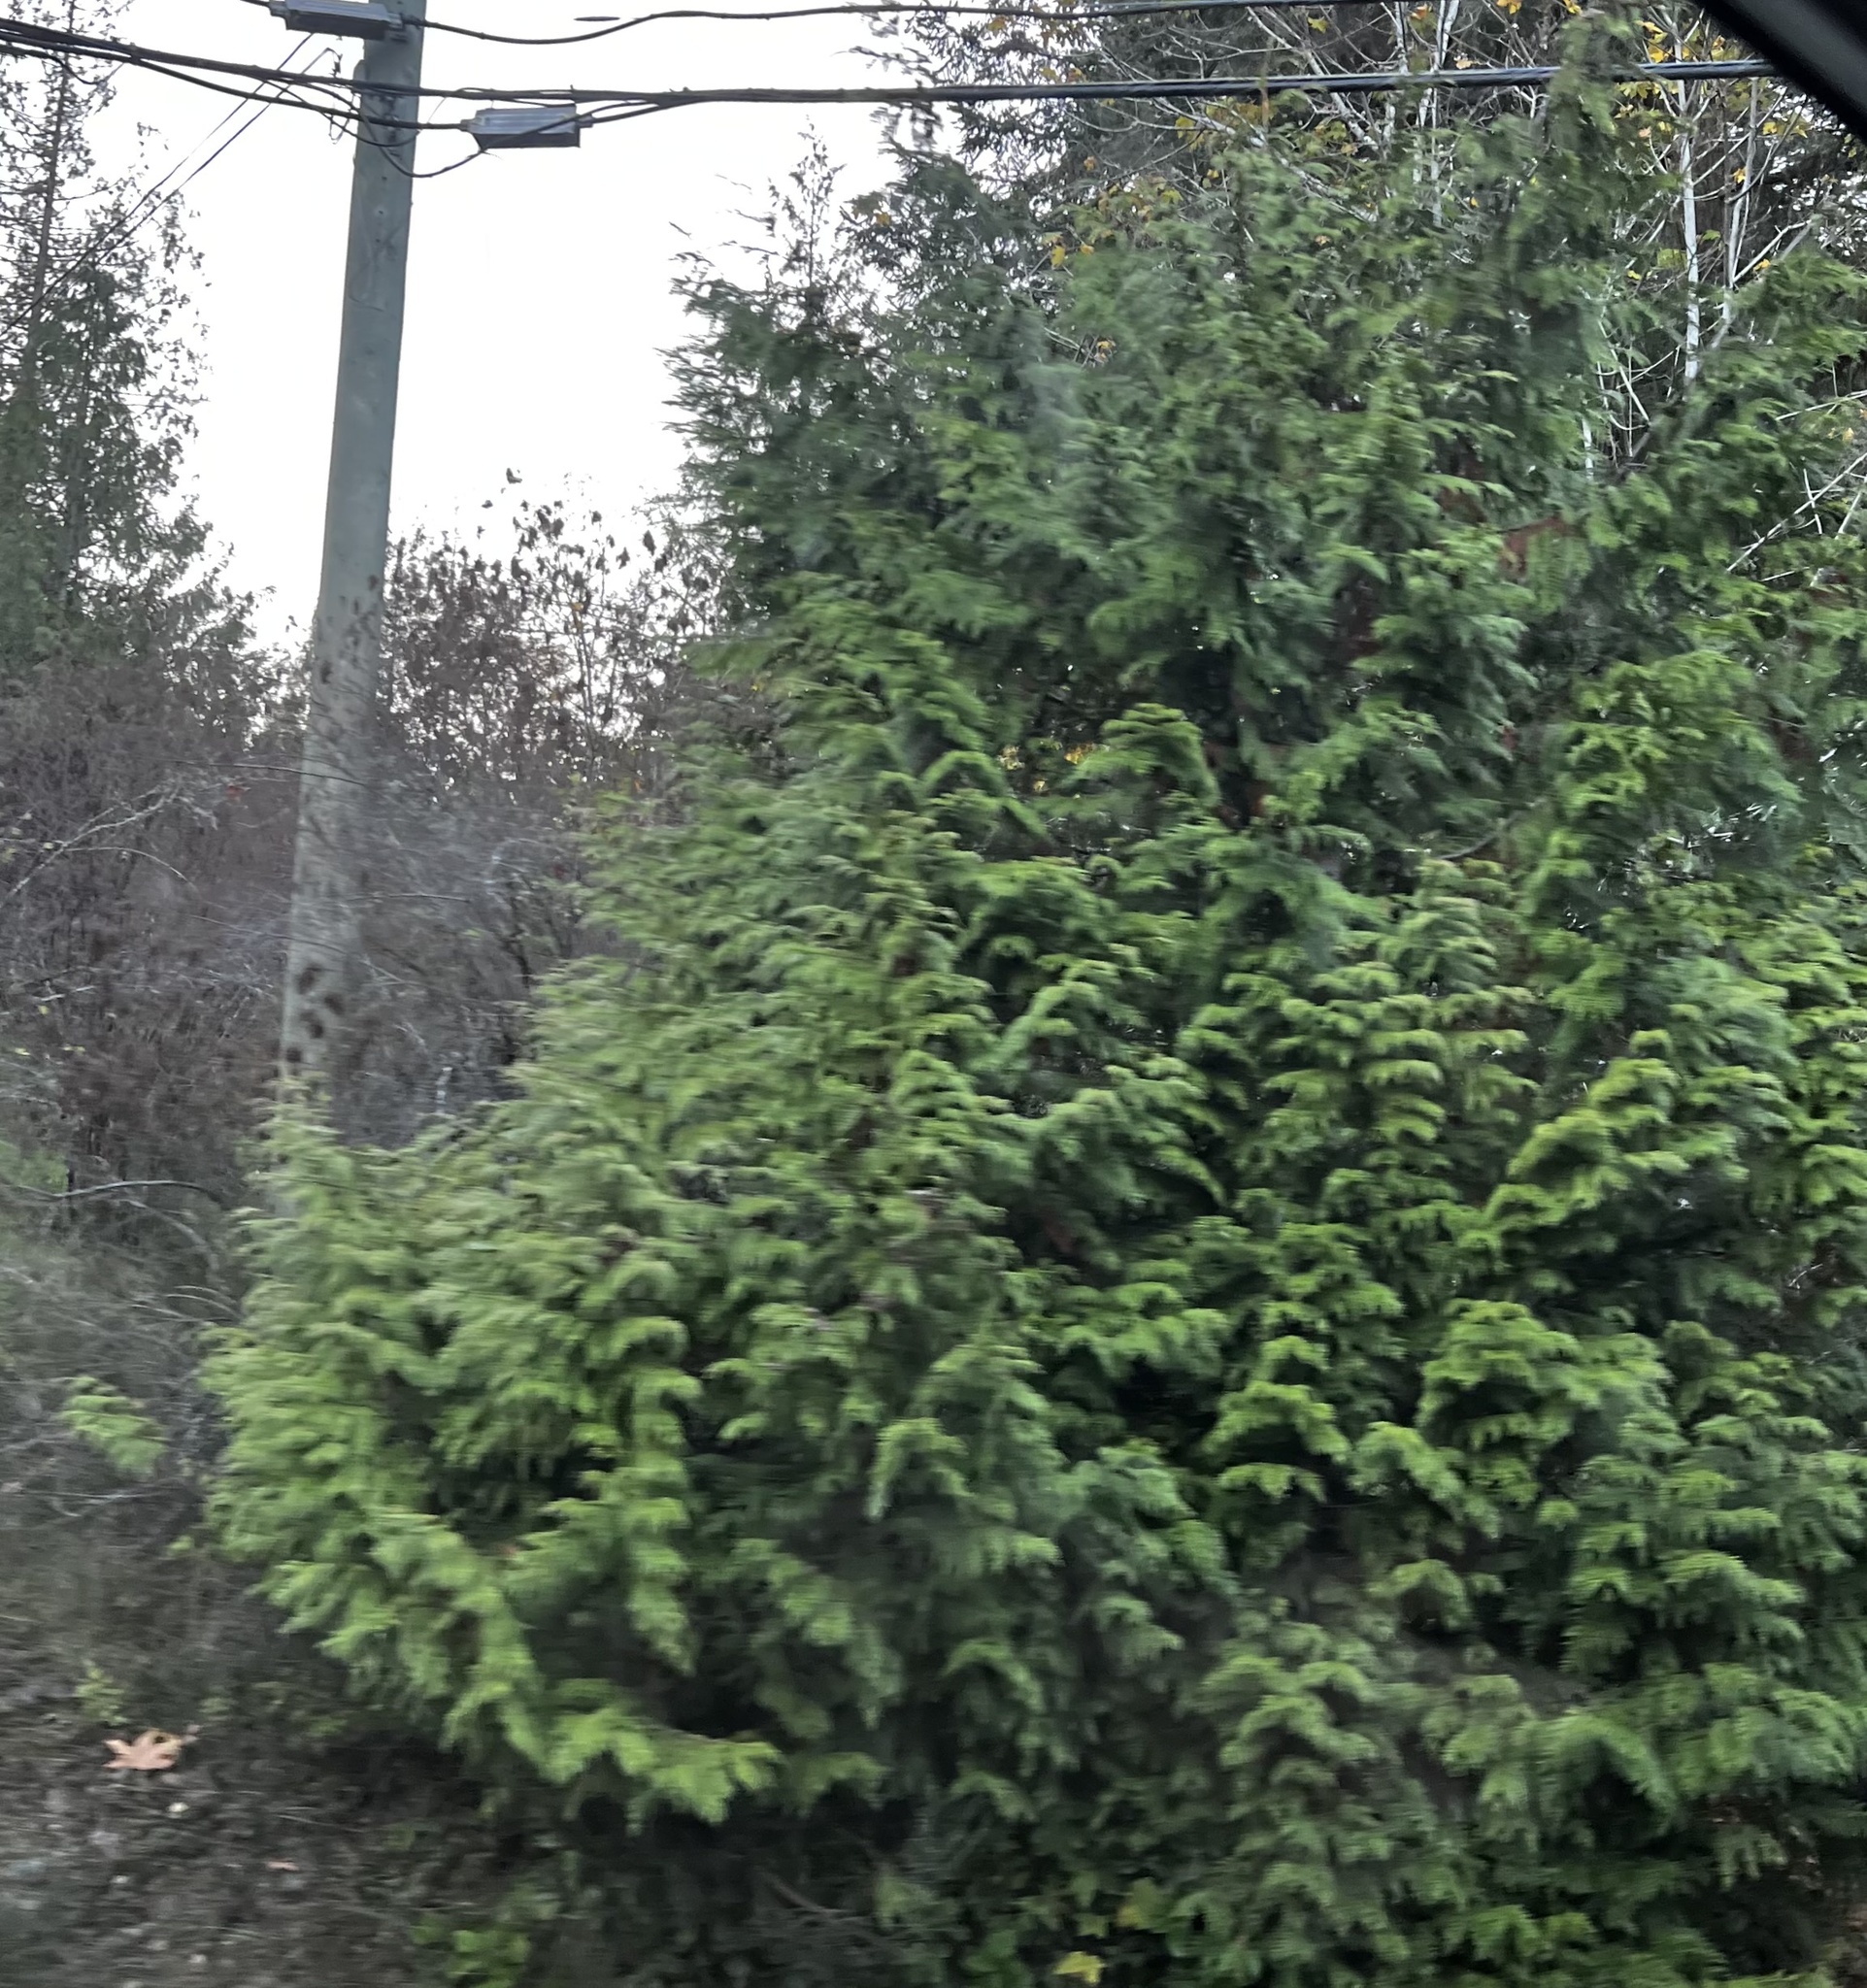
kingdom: Plantae
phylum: Tracheophyta
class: Pinopsida
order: Pinales
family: Cupressaceae
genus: Thuja
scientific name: Thuja plicata
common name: Western red-cedar
